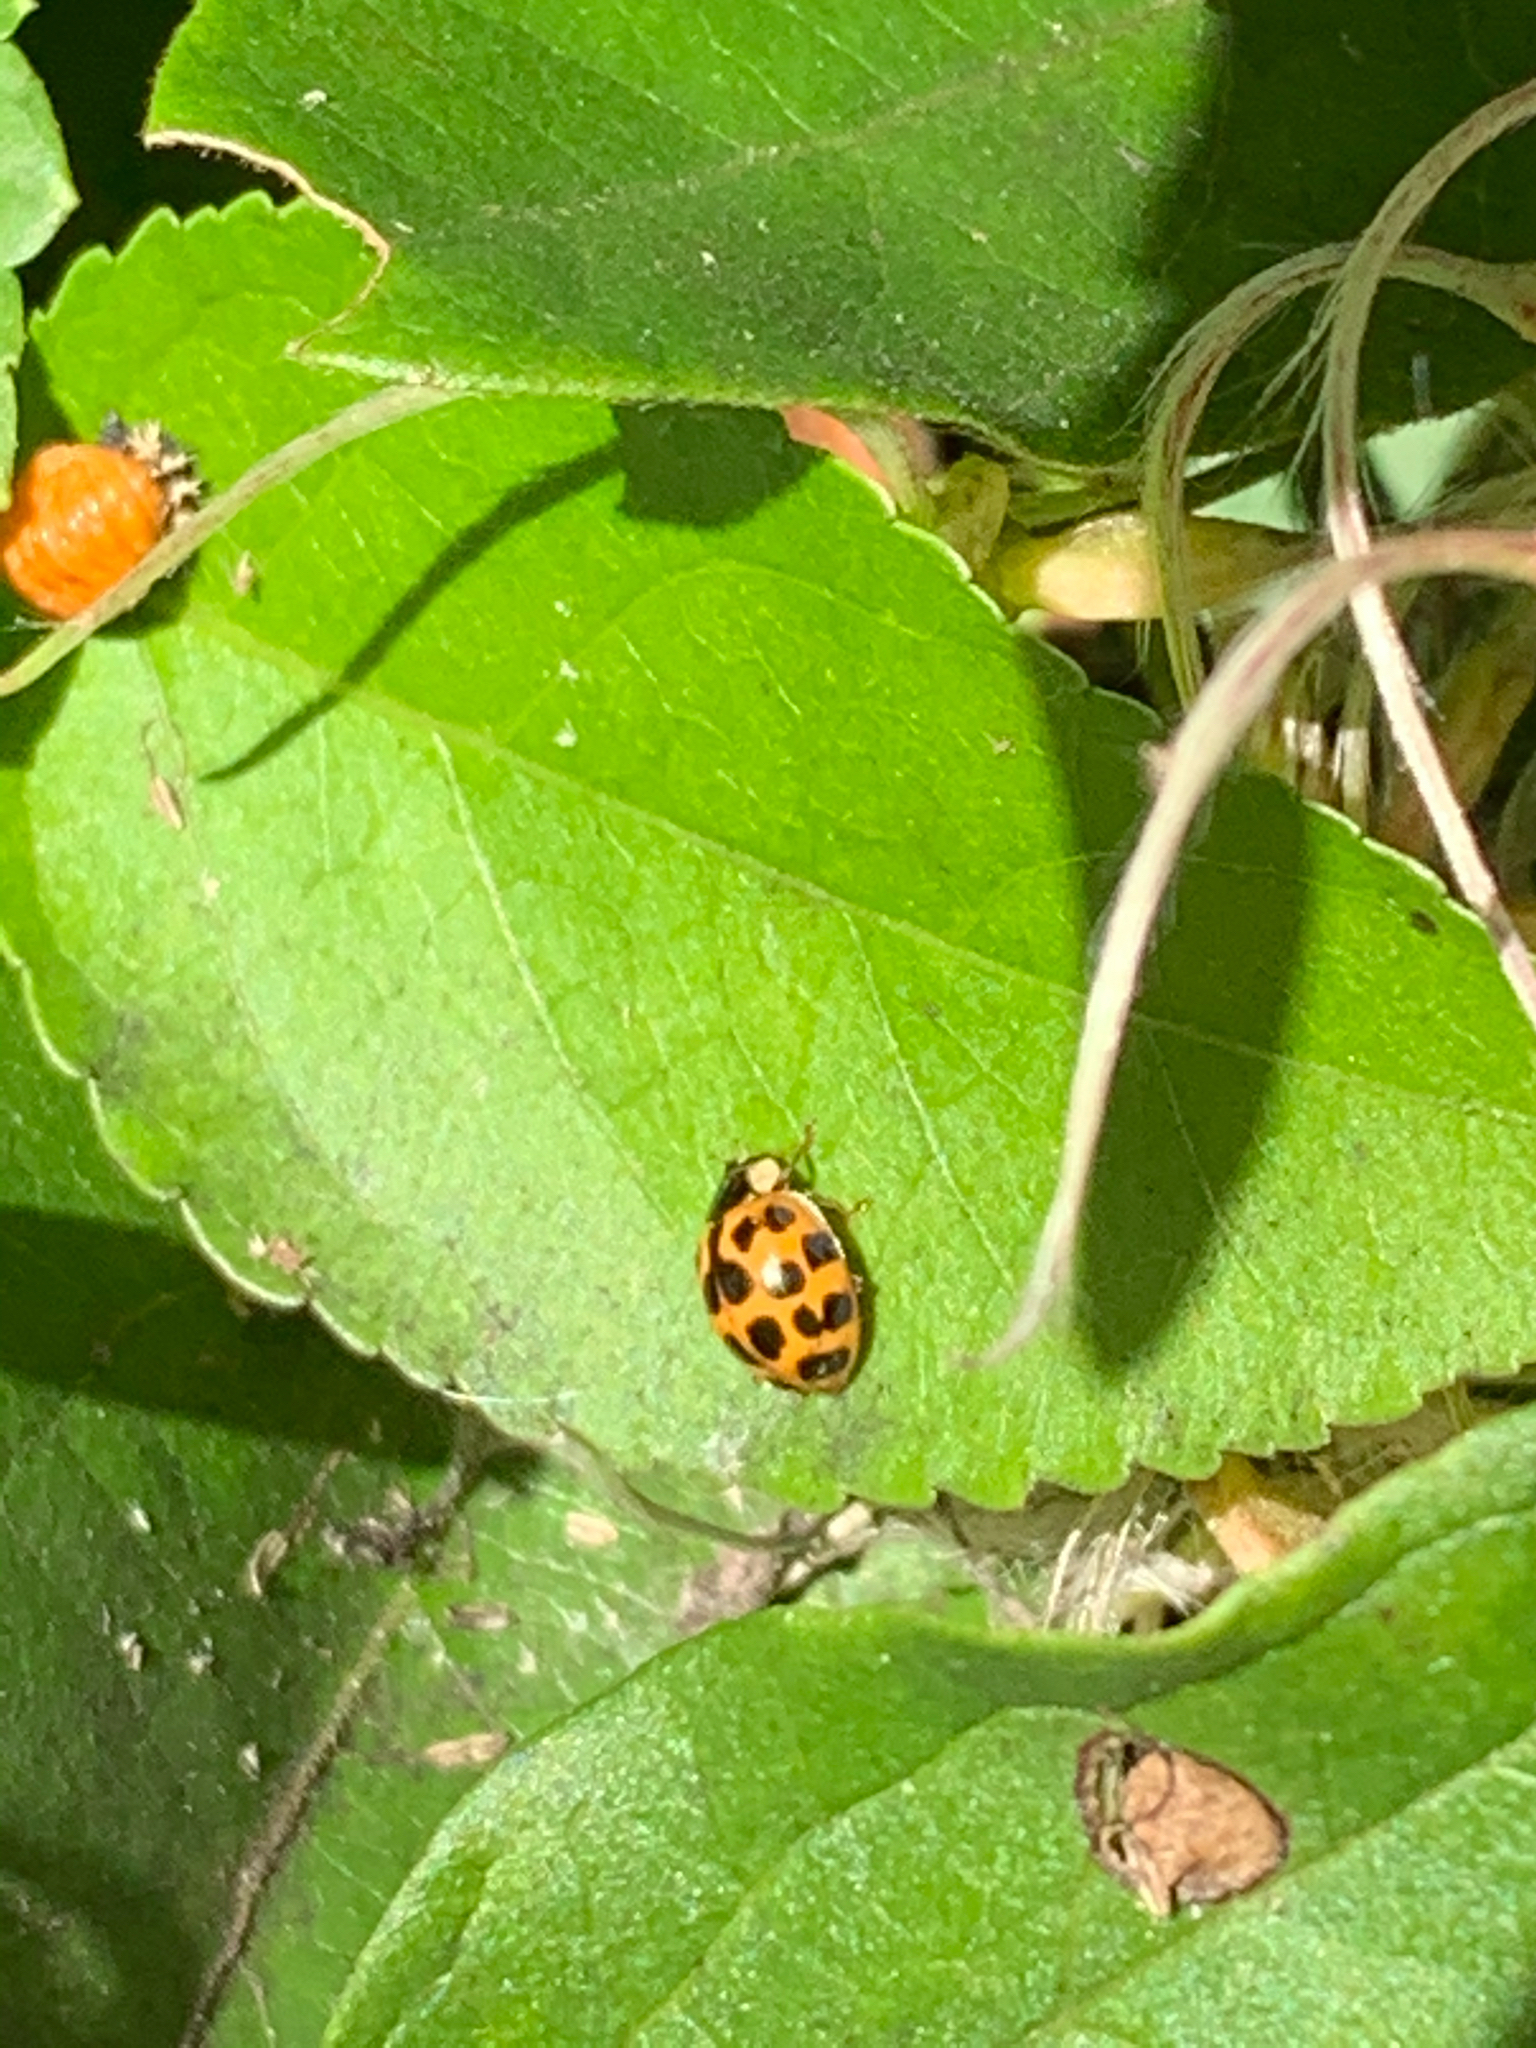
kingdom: Animalia
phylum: Arthropoda
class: Insecta
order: Coleoptera
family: Coccinellidae
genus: Harmonia
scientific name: Harmonia axyridis
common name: Harlequin ladybird
